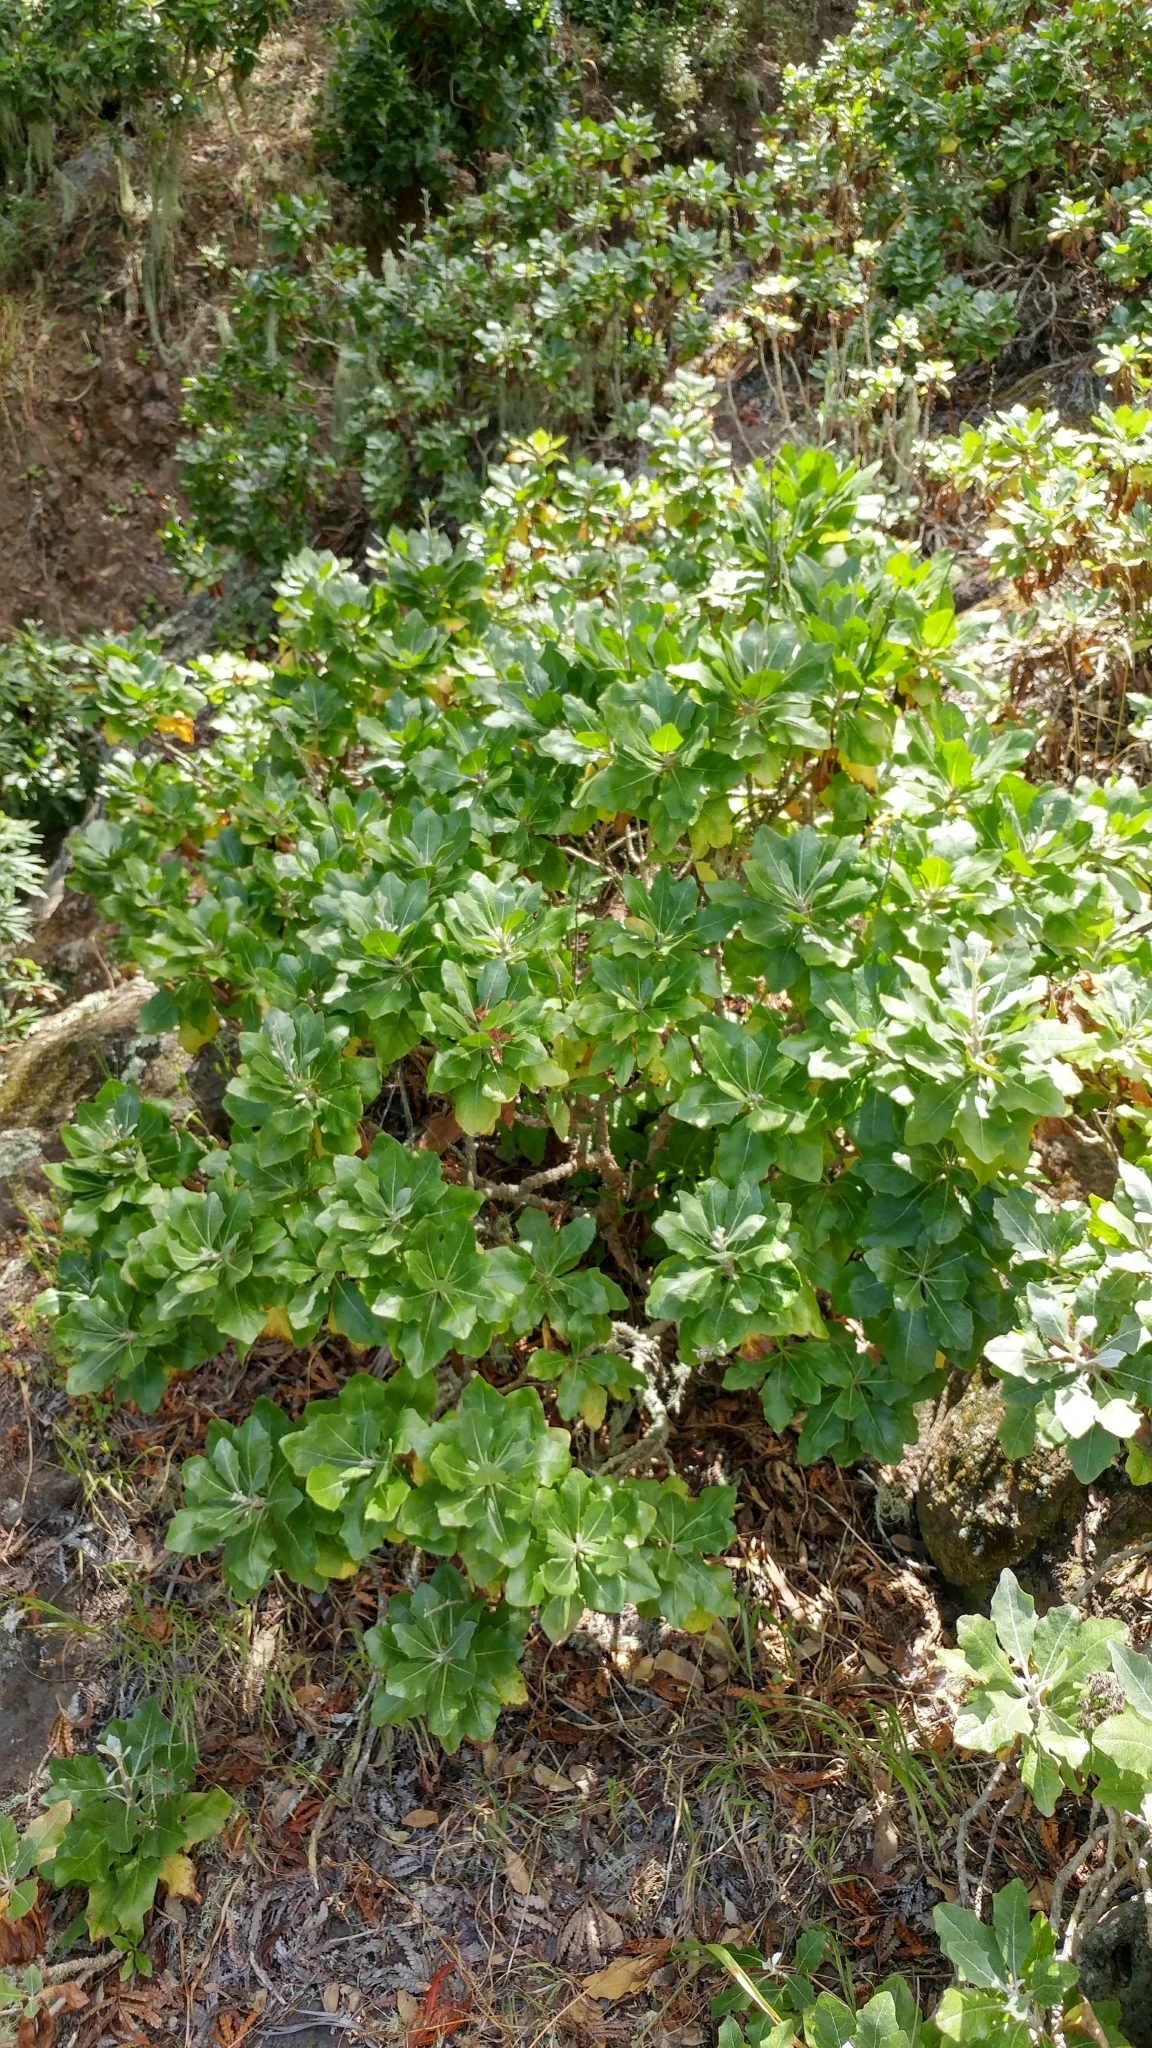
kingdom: Plantae
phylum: Tracheophyta
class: Magnoliopsida
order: Asterales
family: Asteraceae
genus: Munzothamnus
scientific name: Munzothamnus blairii
